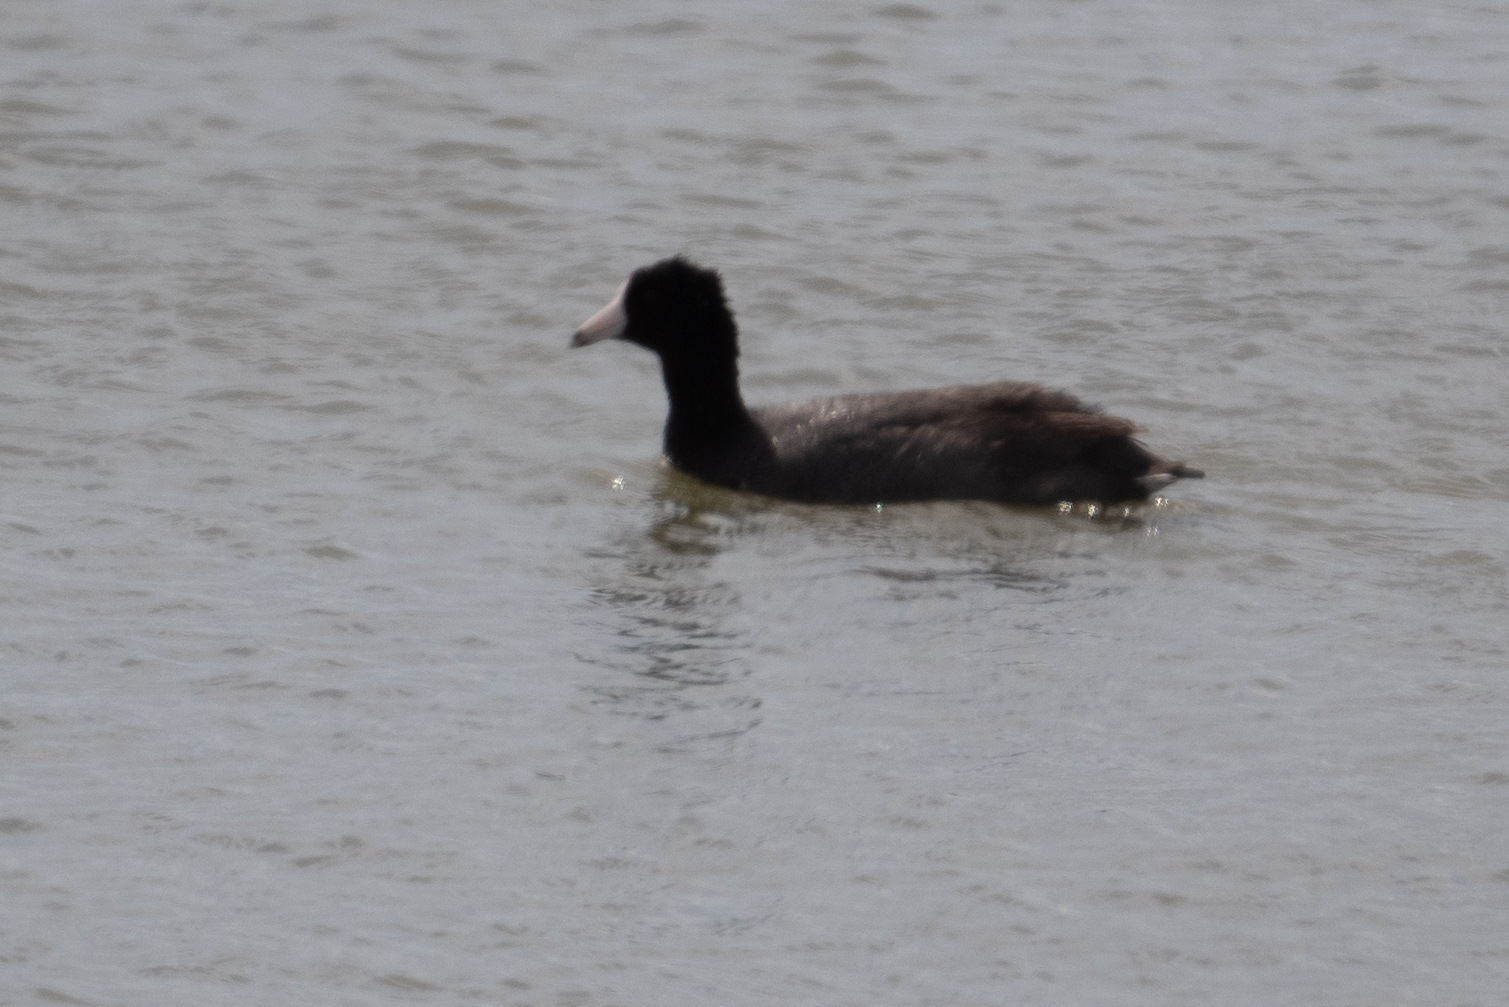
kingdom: Animalia
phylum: Chordata
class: Aves
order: Gruiformes
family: Rallidae
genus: Fulica
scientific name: Fulica americana
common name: American coot
